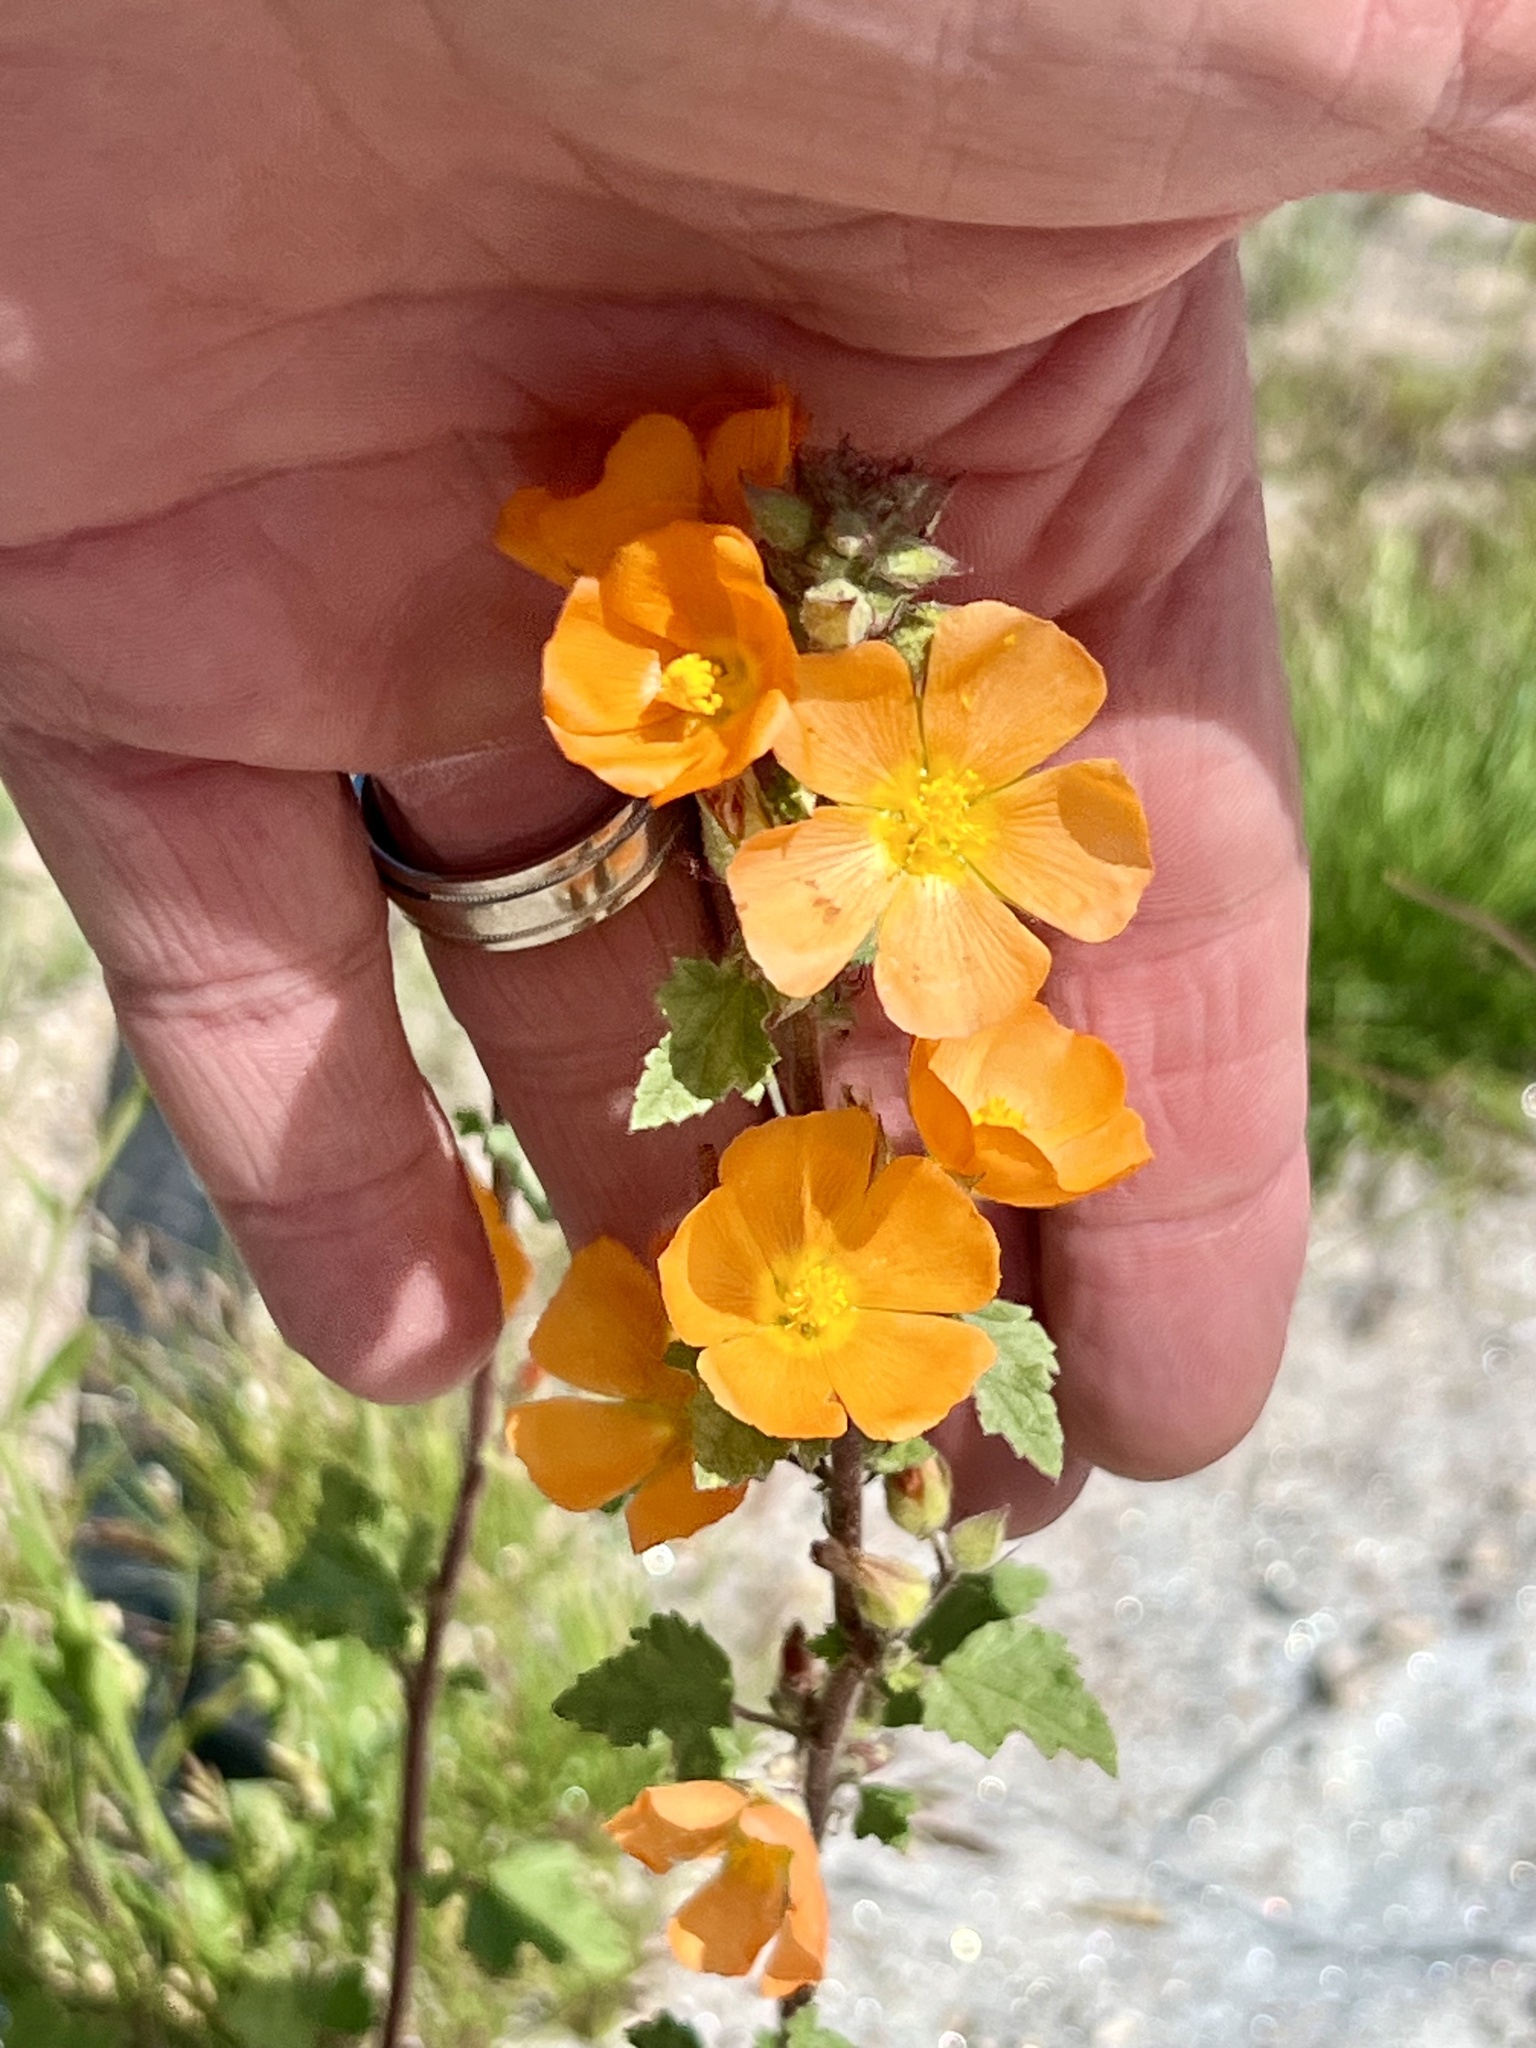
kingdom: Plantae
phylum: Tracheophyta
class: Magnoliopsida
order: Malvales
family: Malvaceae
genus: Sphaeralcea
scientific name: Sphaeralcea coulteri
